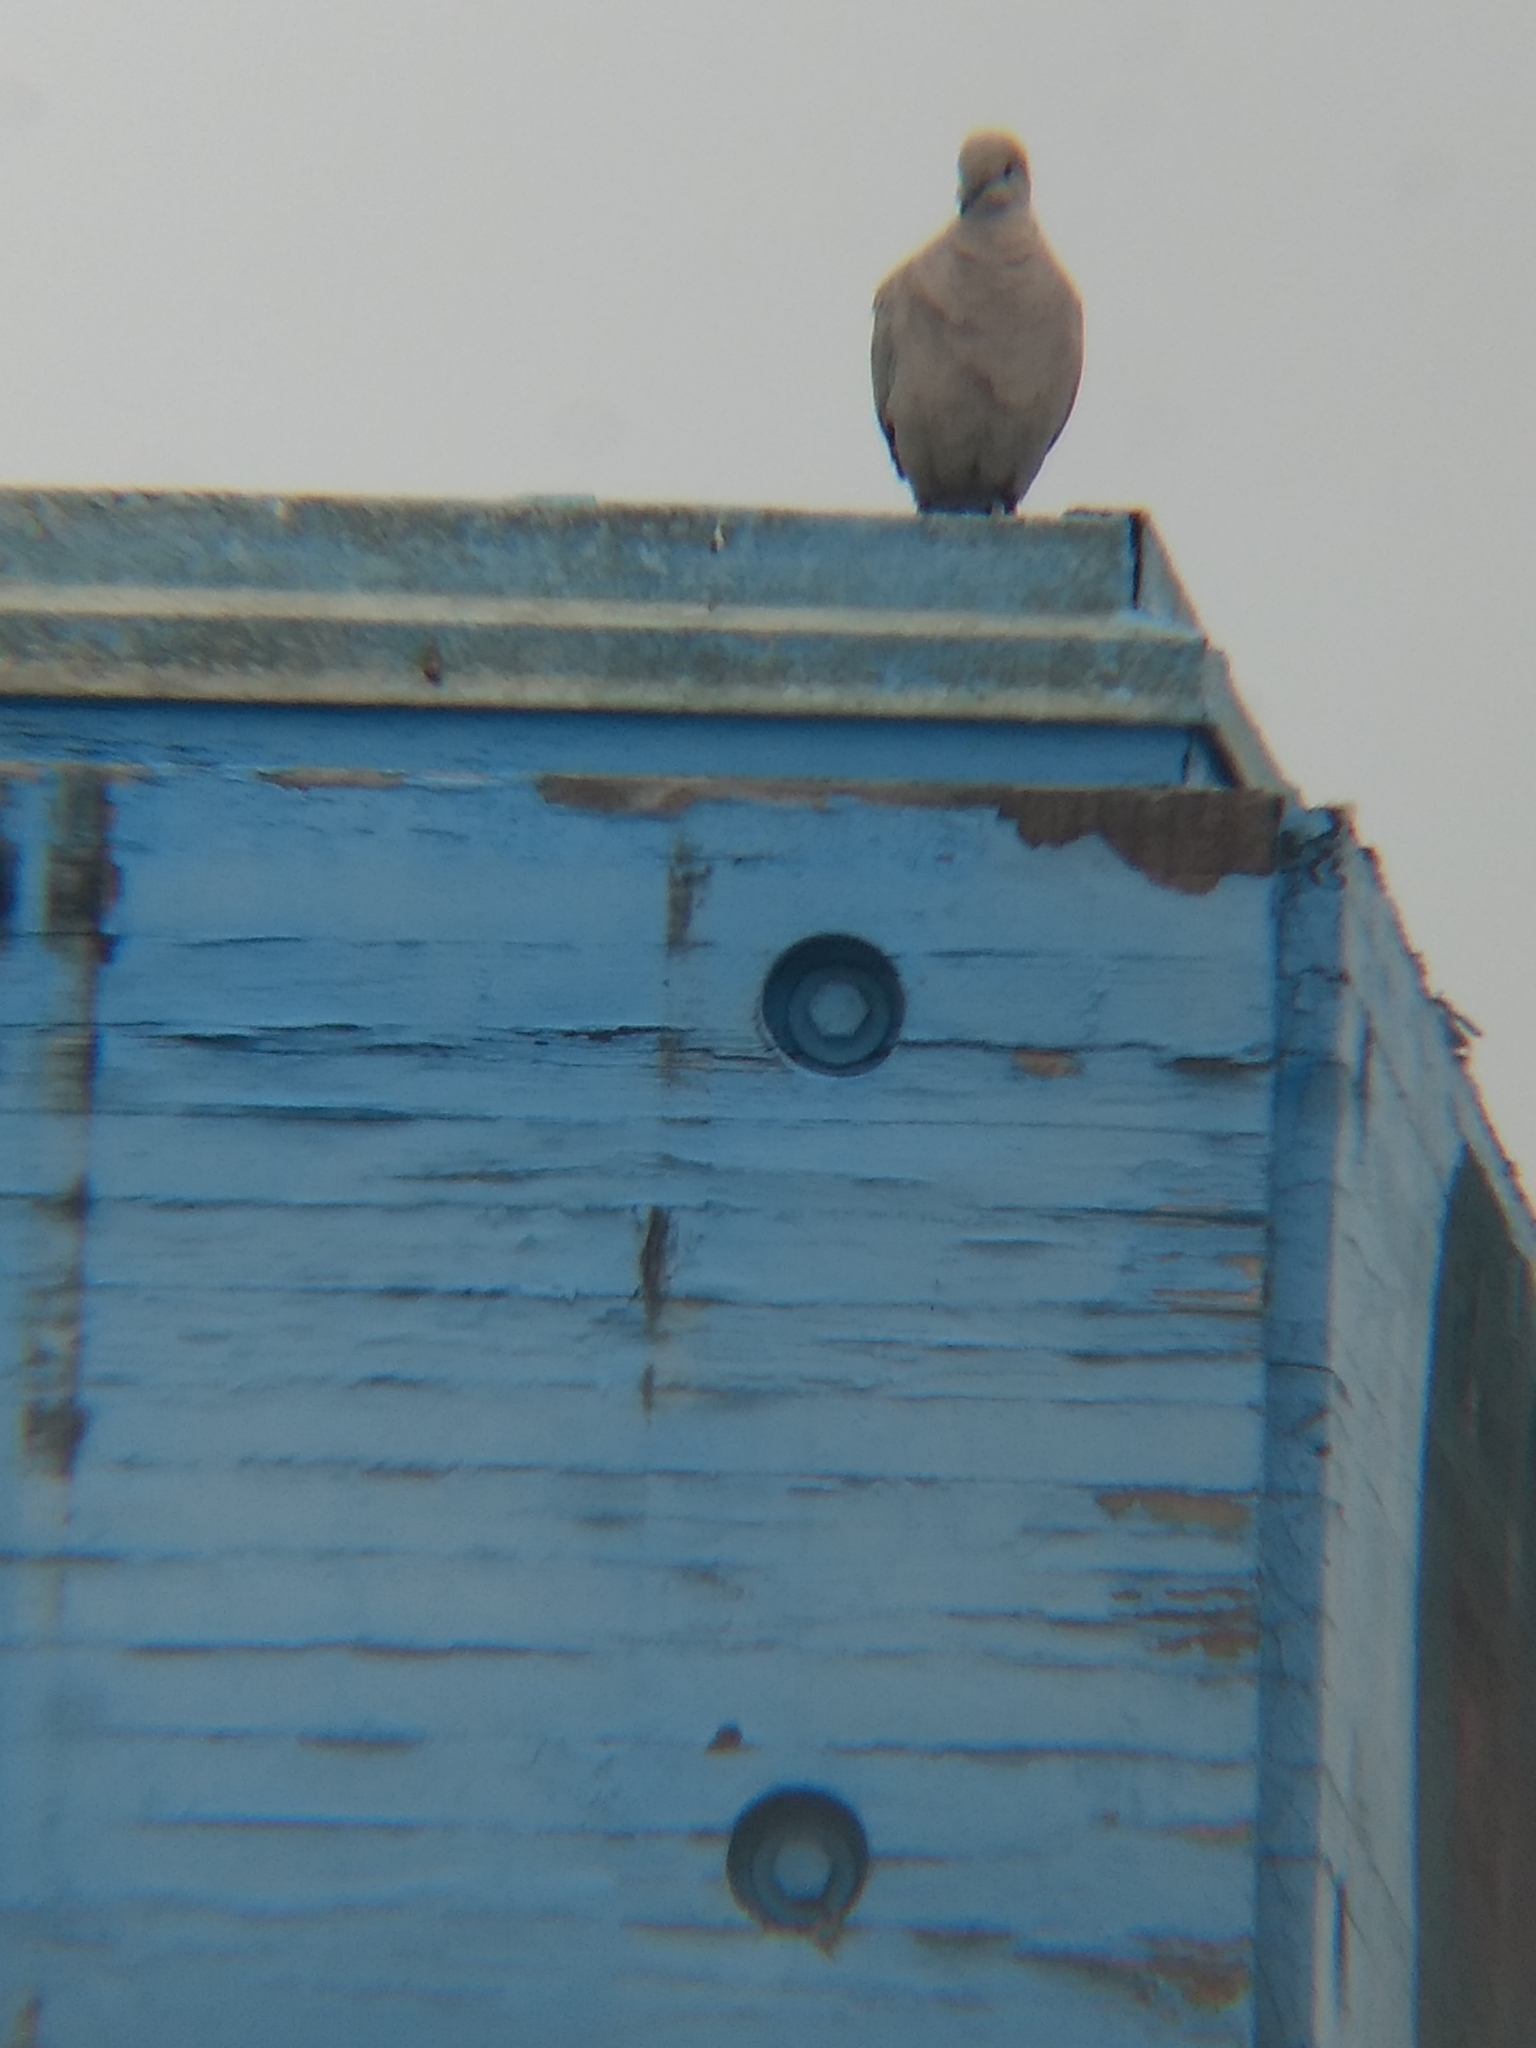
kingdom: Animalia
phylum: Chordata
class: Aves
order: Columbiformes
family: Columbidae
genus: Zenaida
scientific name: Zenaida macroura
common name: Mourning dove
